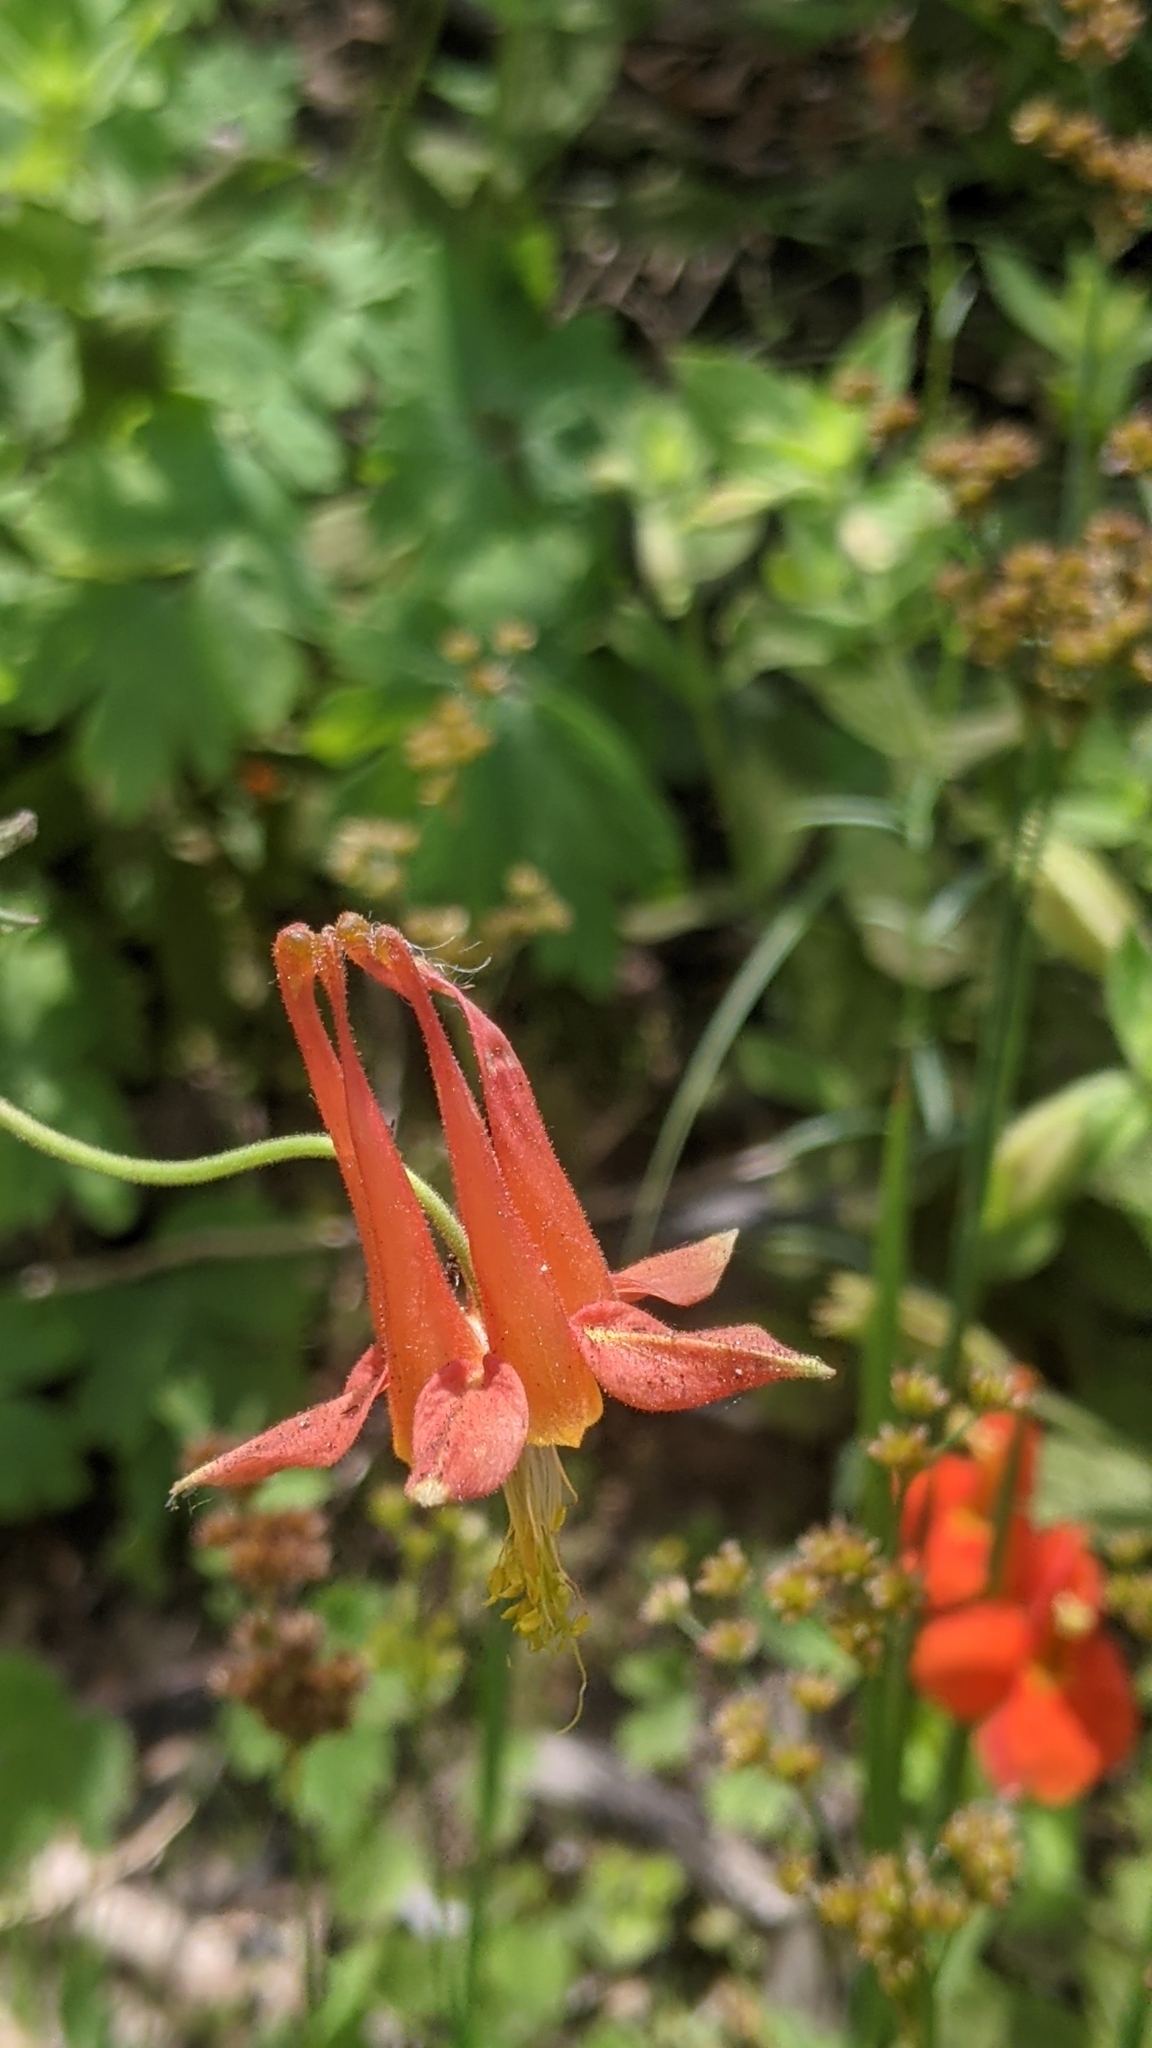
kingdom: Plantae
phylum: Tracheophyta
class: Magnoliopsida
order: Ranunculales
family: Ranunculaceae
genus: Aquilegia
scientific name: Aquilegia formosa
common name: Sitka columbine
